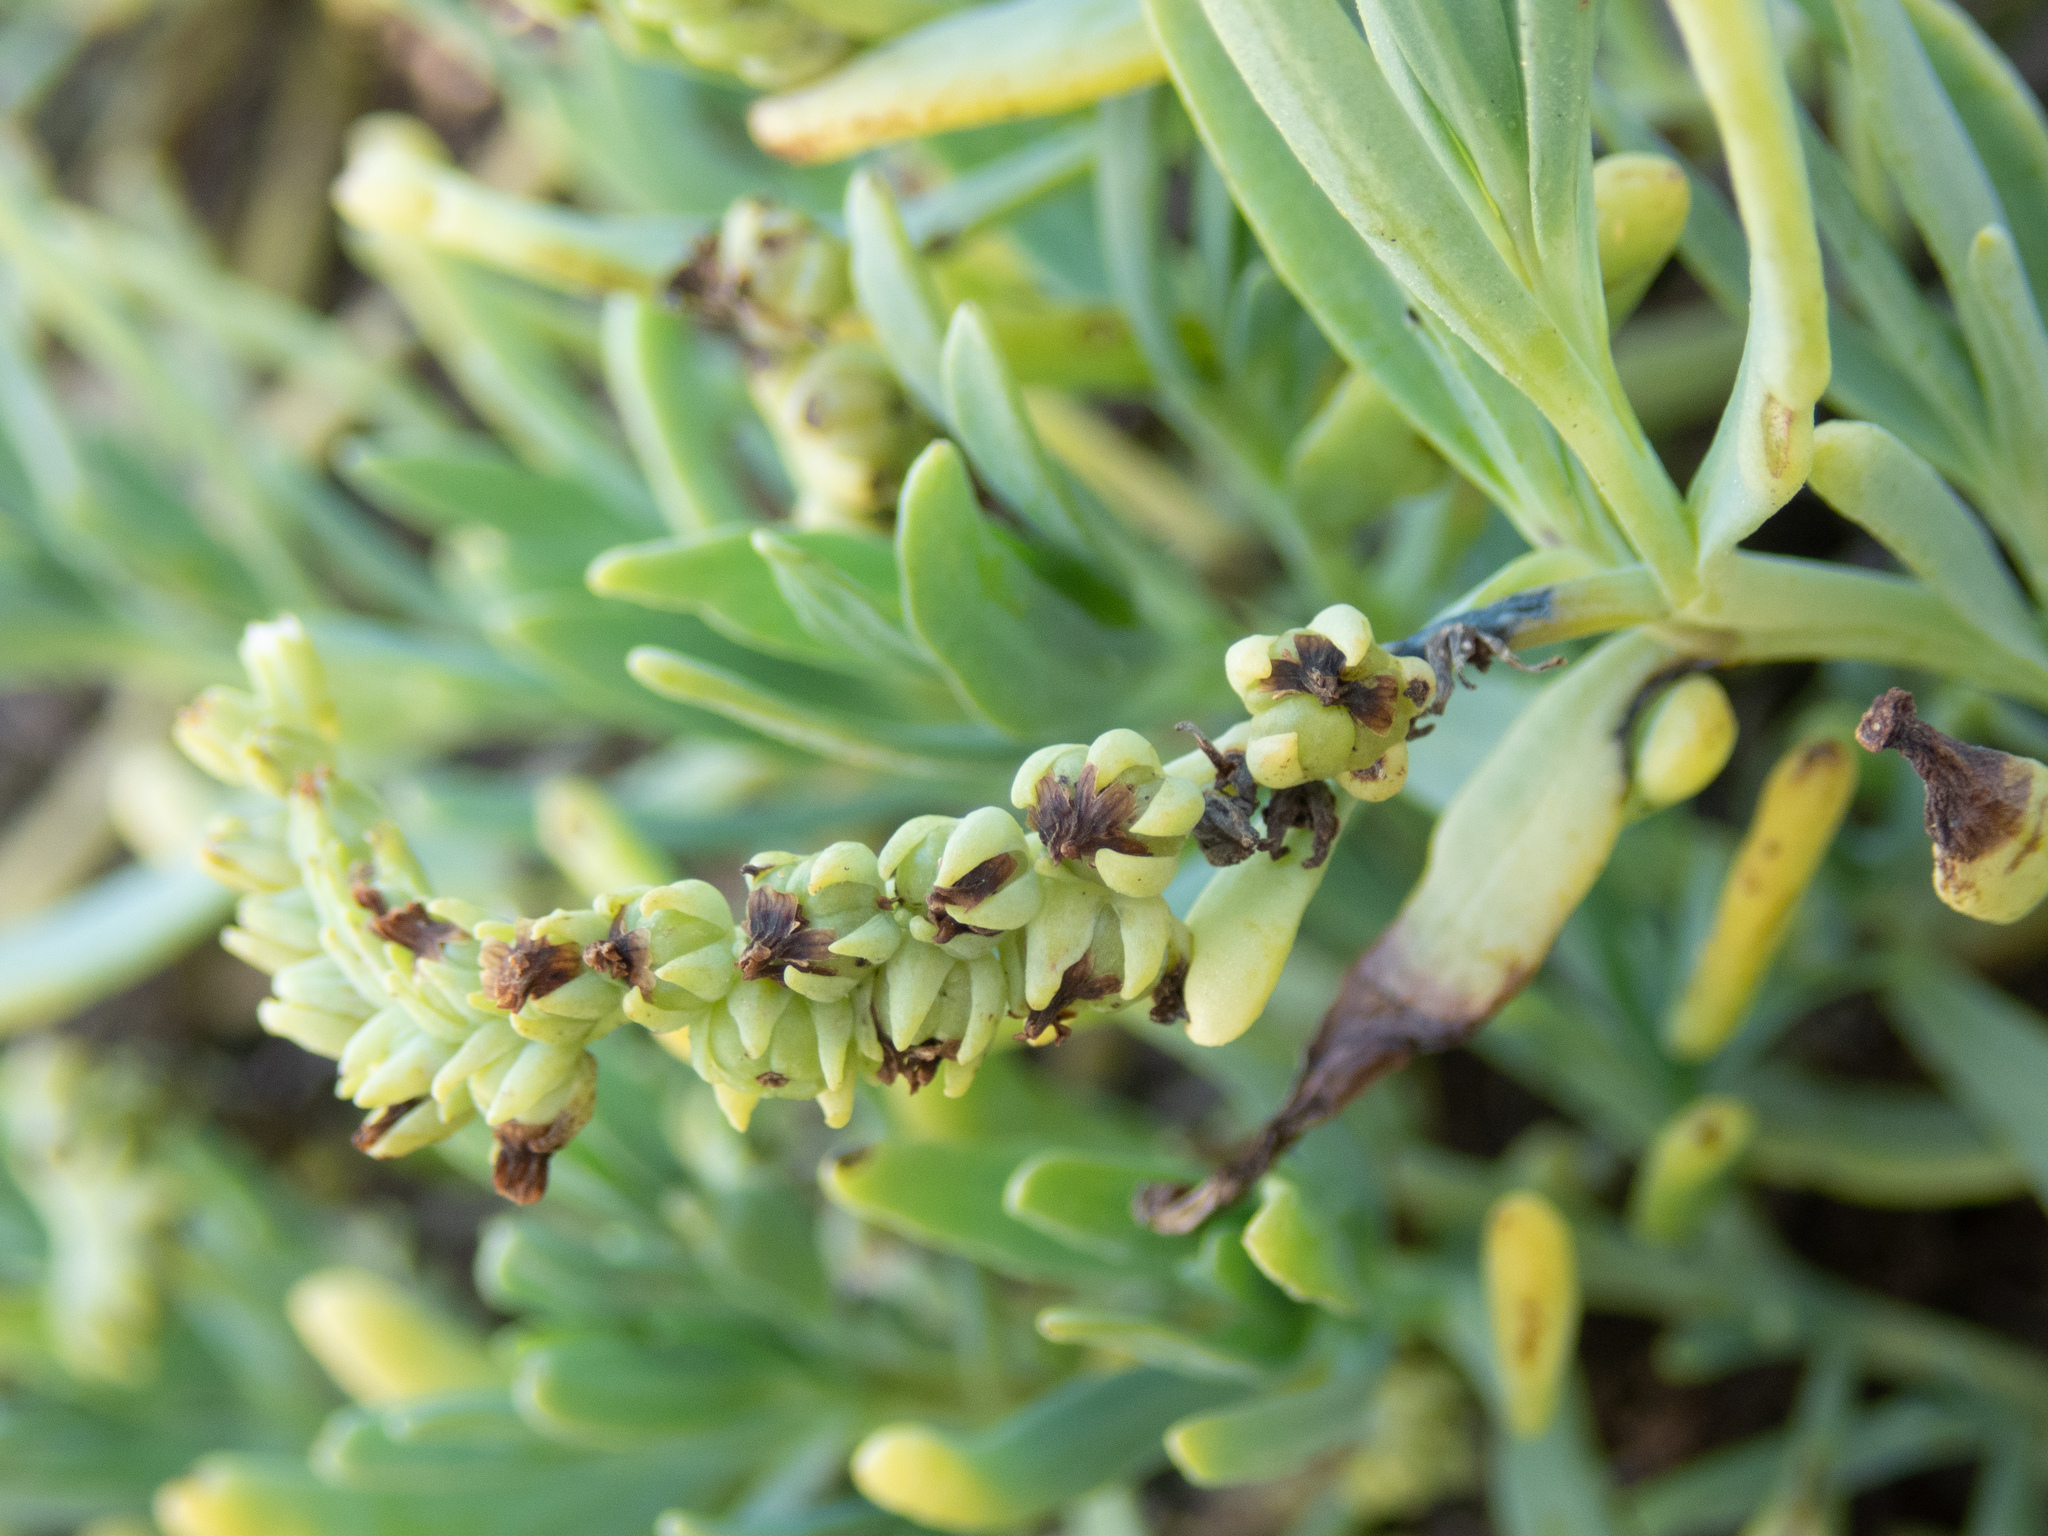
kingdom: Plantae
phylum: Tracheophyta
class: Magnoliopsida
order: Boraginales
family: Heliotropiaceae
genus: Heliotropium
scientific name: Heliotropium curassavicum
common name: Seaside heliotrope
